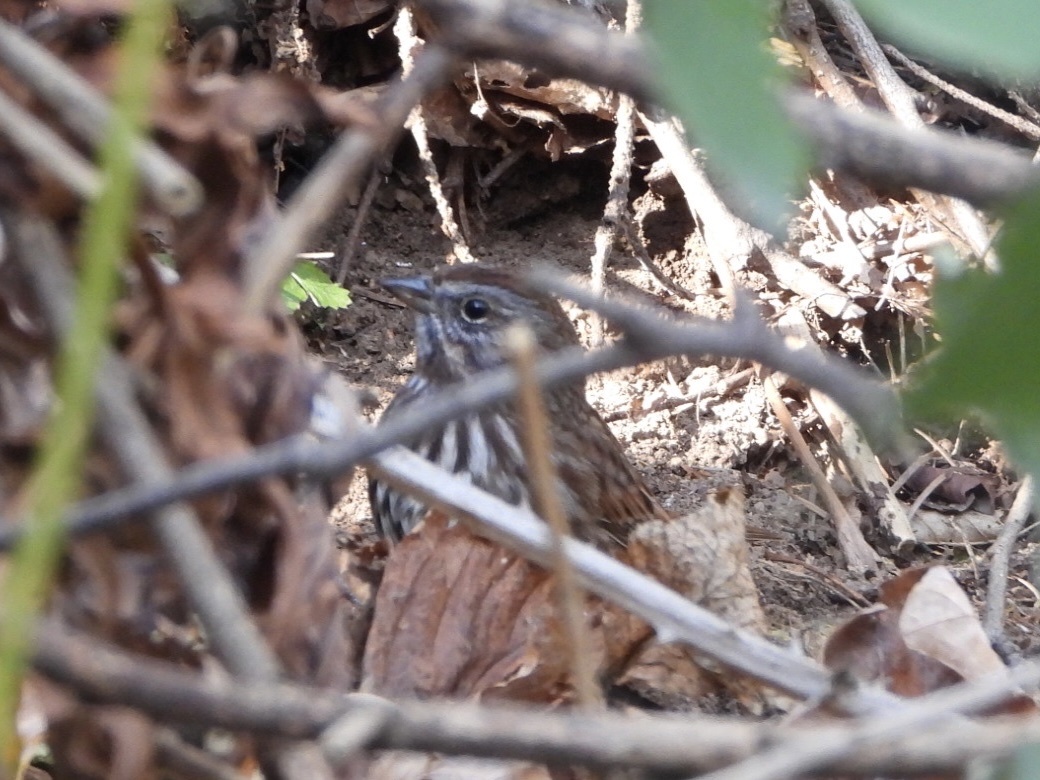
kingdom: Animalia
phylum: Chordata
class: Aves
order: Passeriformes
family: Passerellidae
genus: Melospiza
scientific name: Melospiza melodia
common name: Song sparrow
